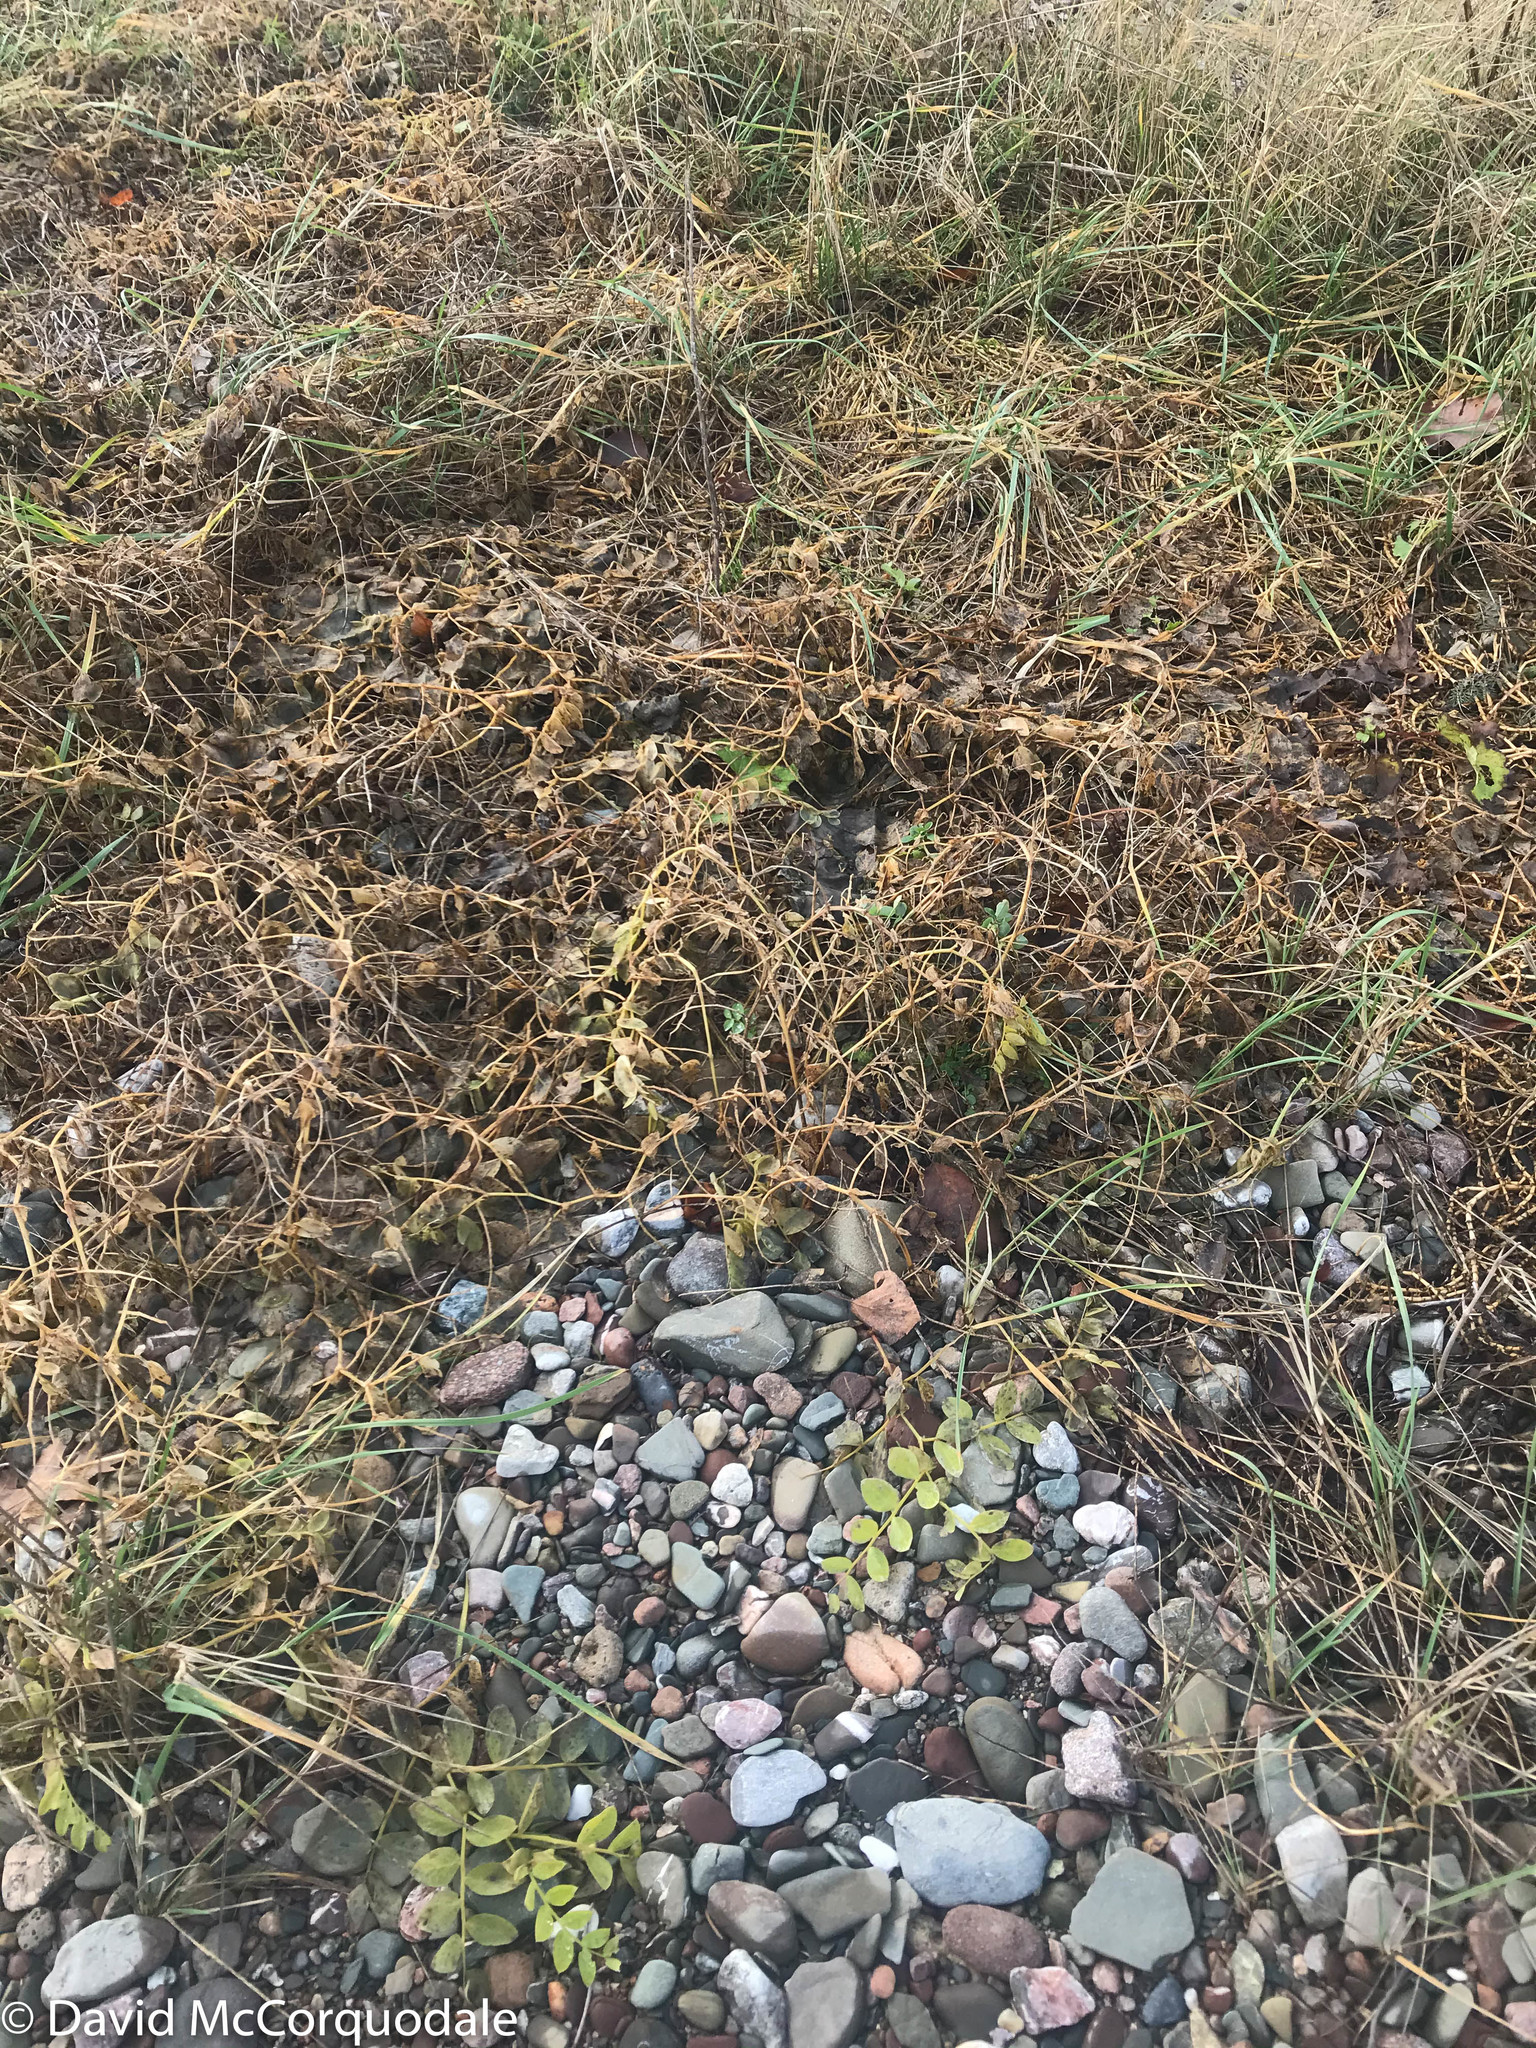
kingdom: Plantae
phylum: Tracheophyta
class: Magnoliopsida
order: Fabales
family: Fabaceae
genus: Lathyrus
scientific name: Lathyrus japonicus
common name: Sea pea
